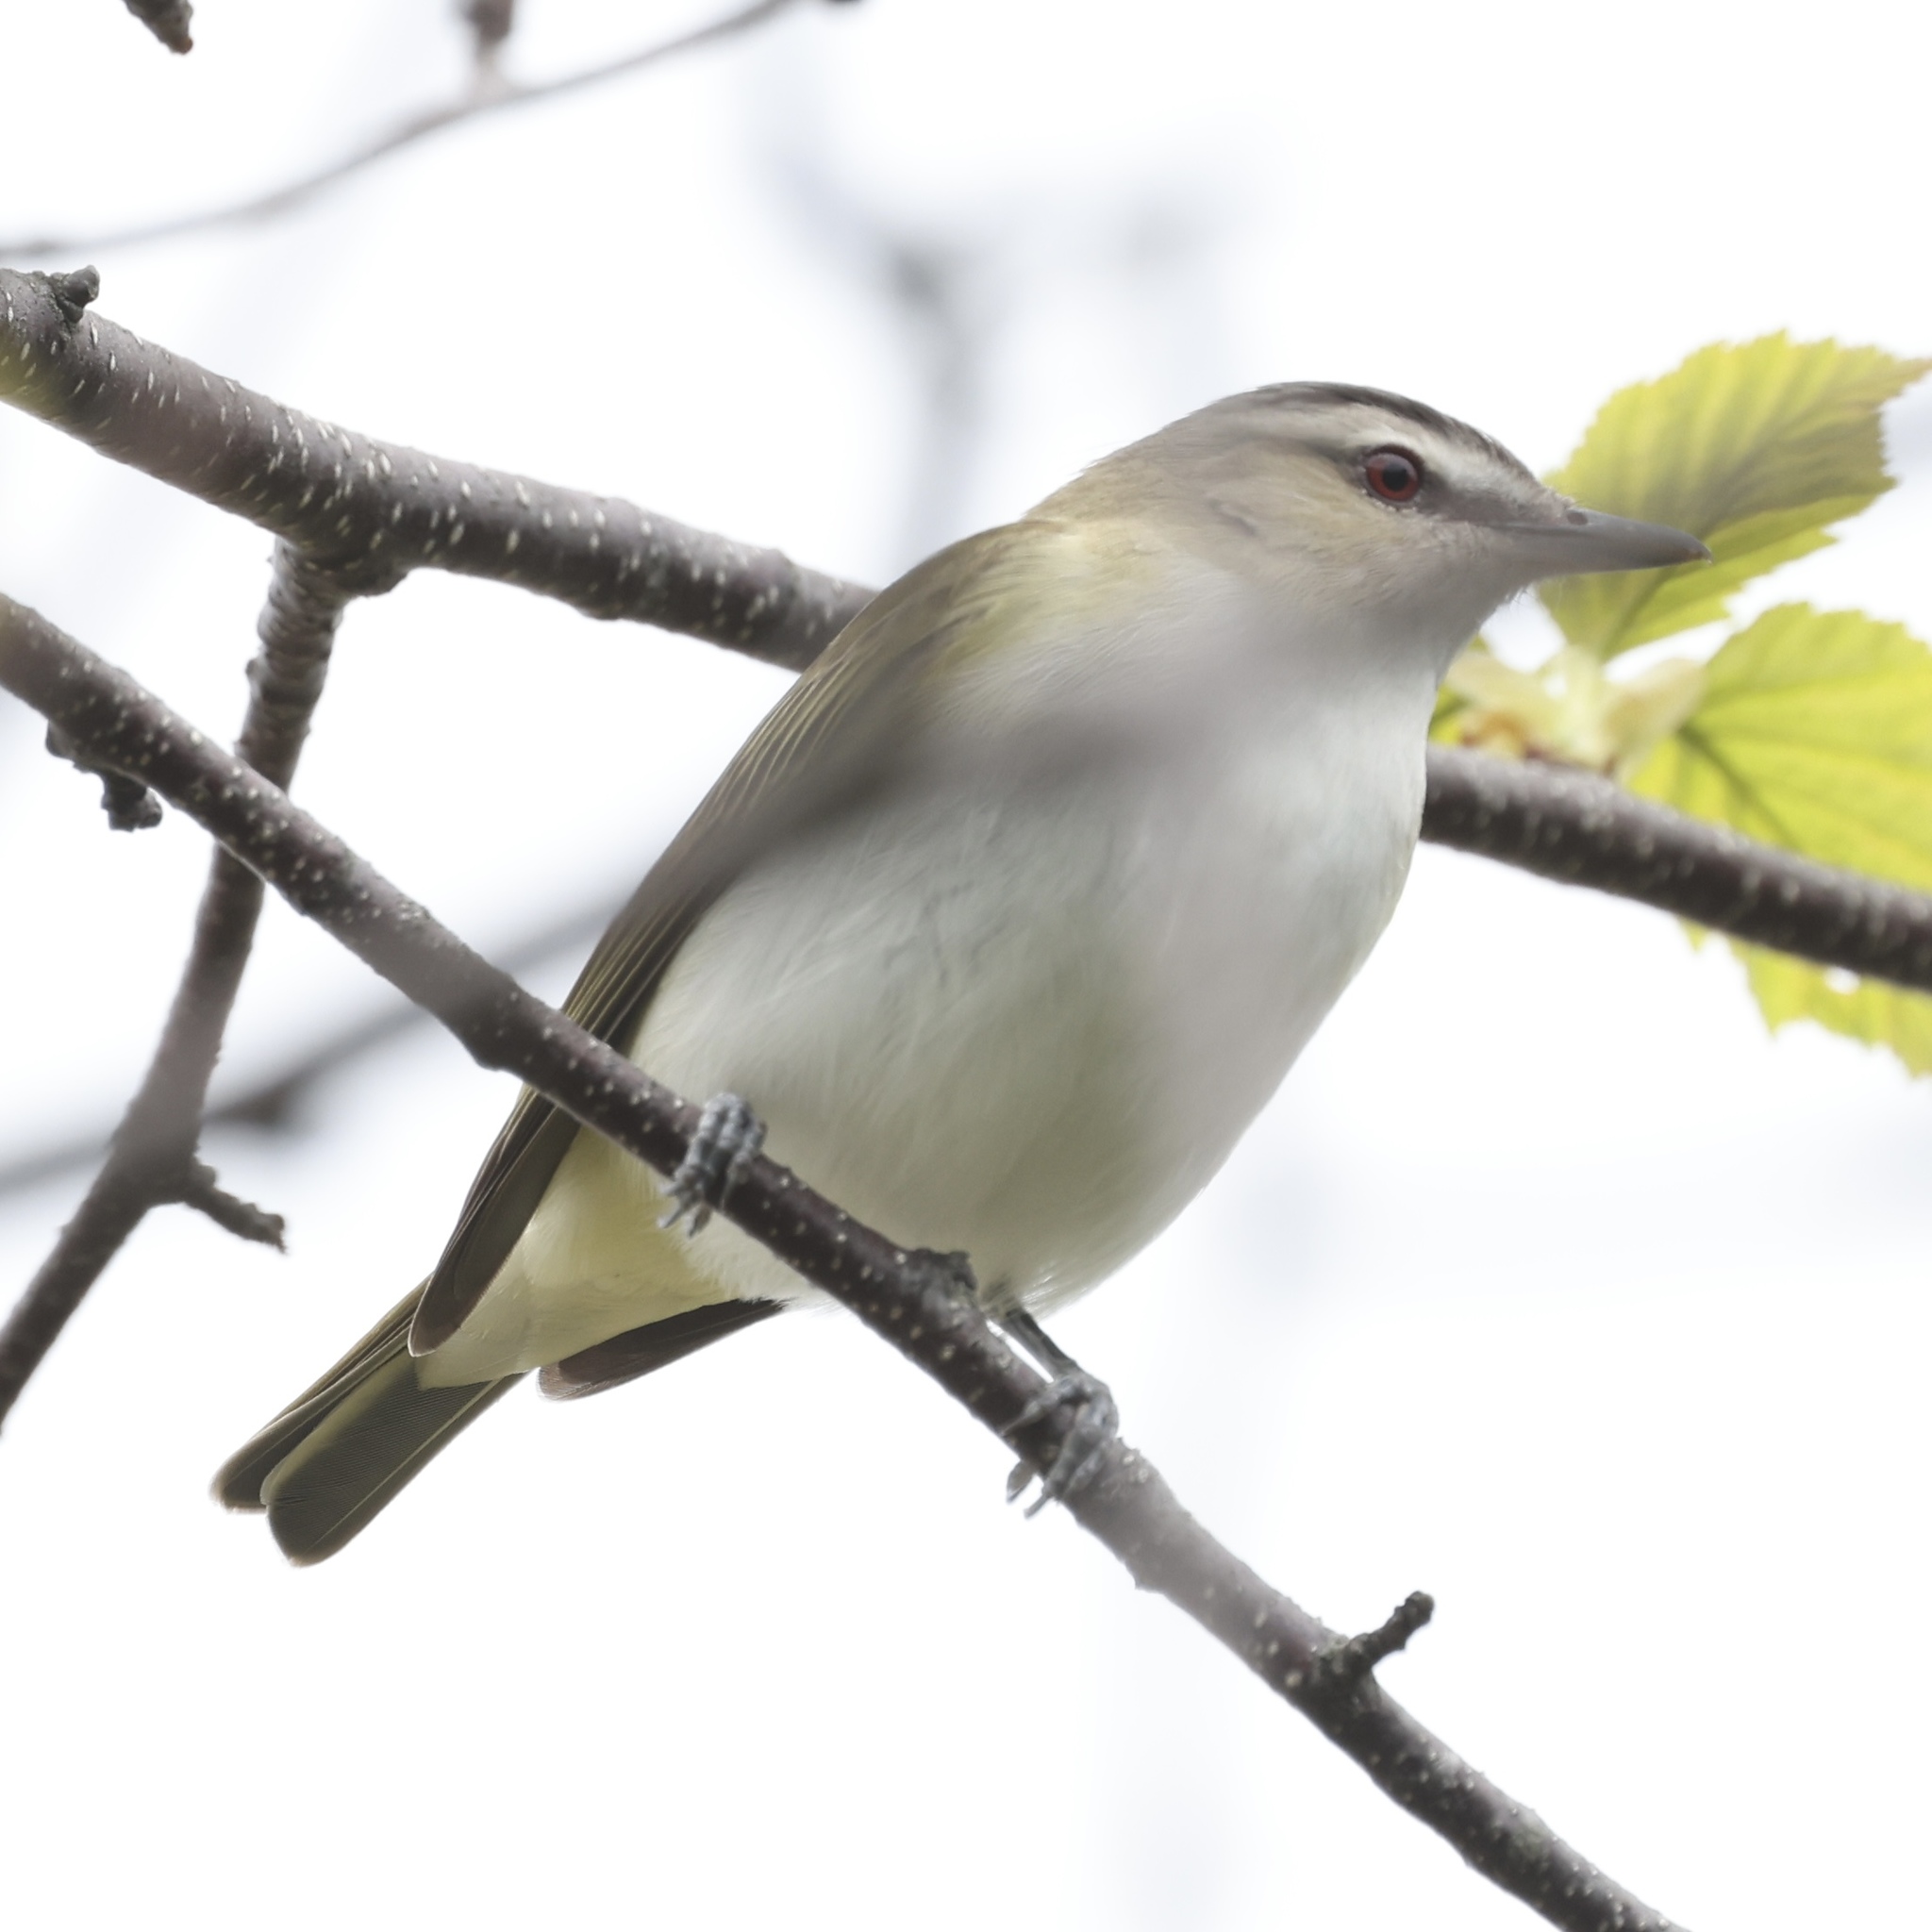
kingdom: Animalia
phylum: Chordata
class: Aves
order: Passeriformes
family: Vireonidae
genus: Vireo
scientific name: Vireo olivaceus
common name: Red-eyed vireo
